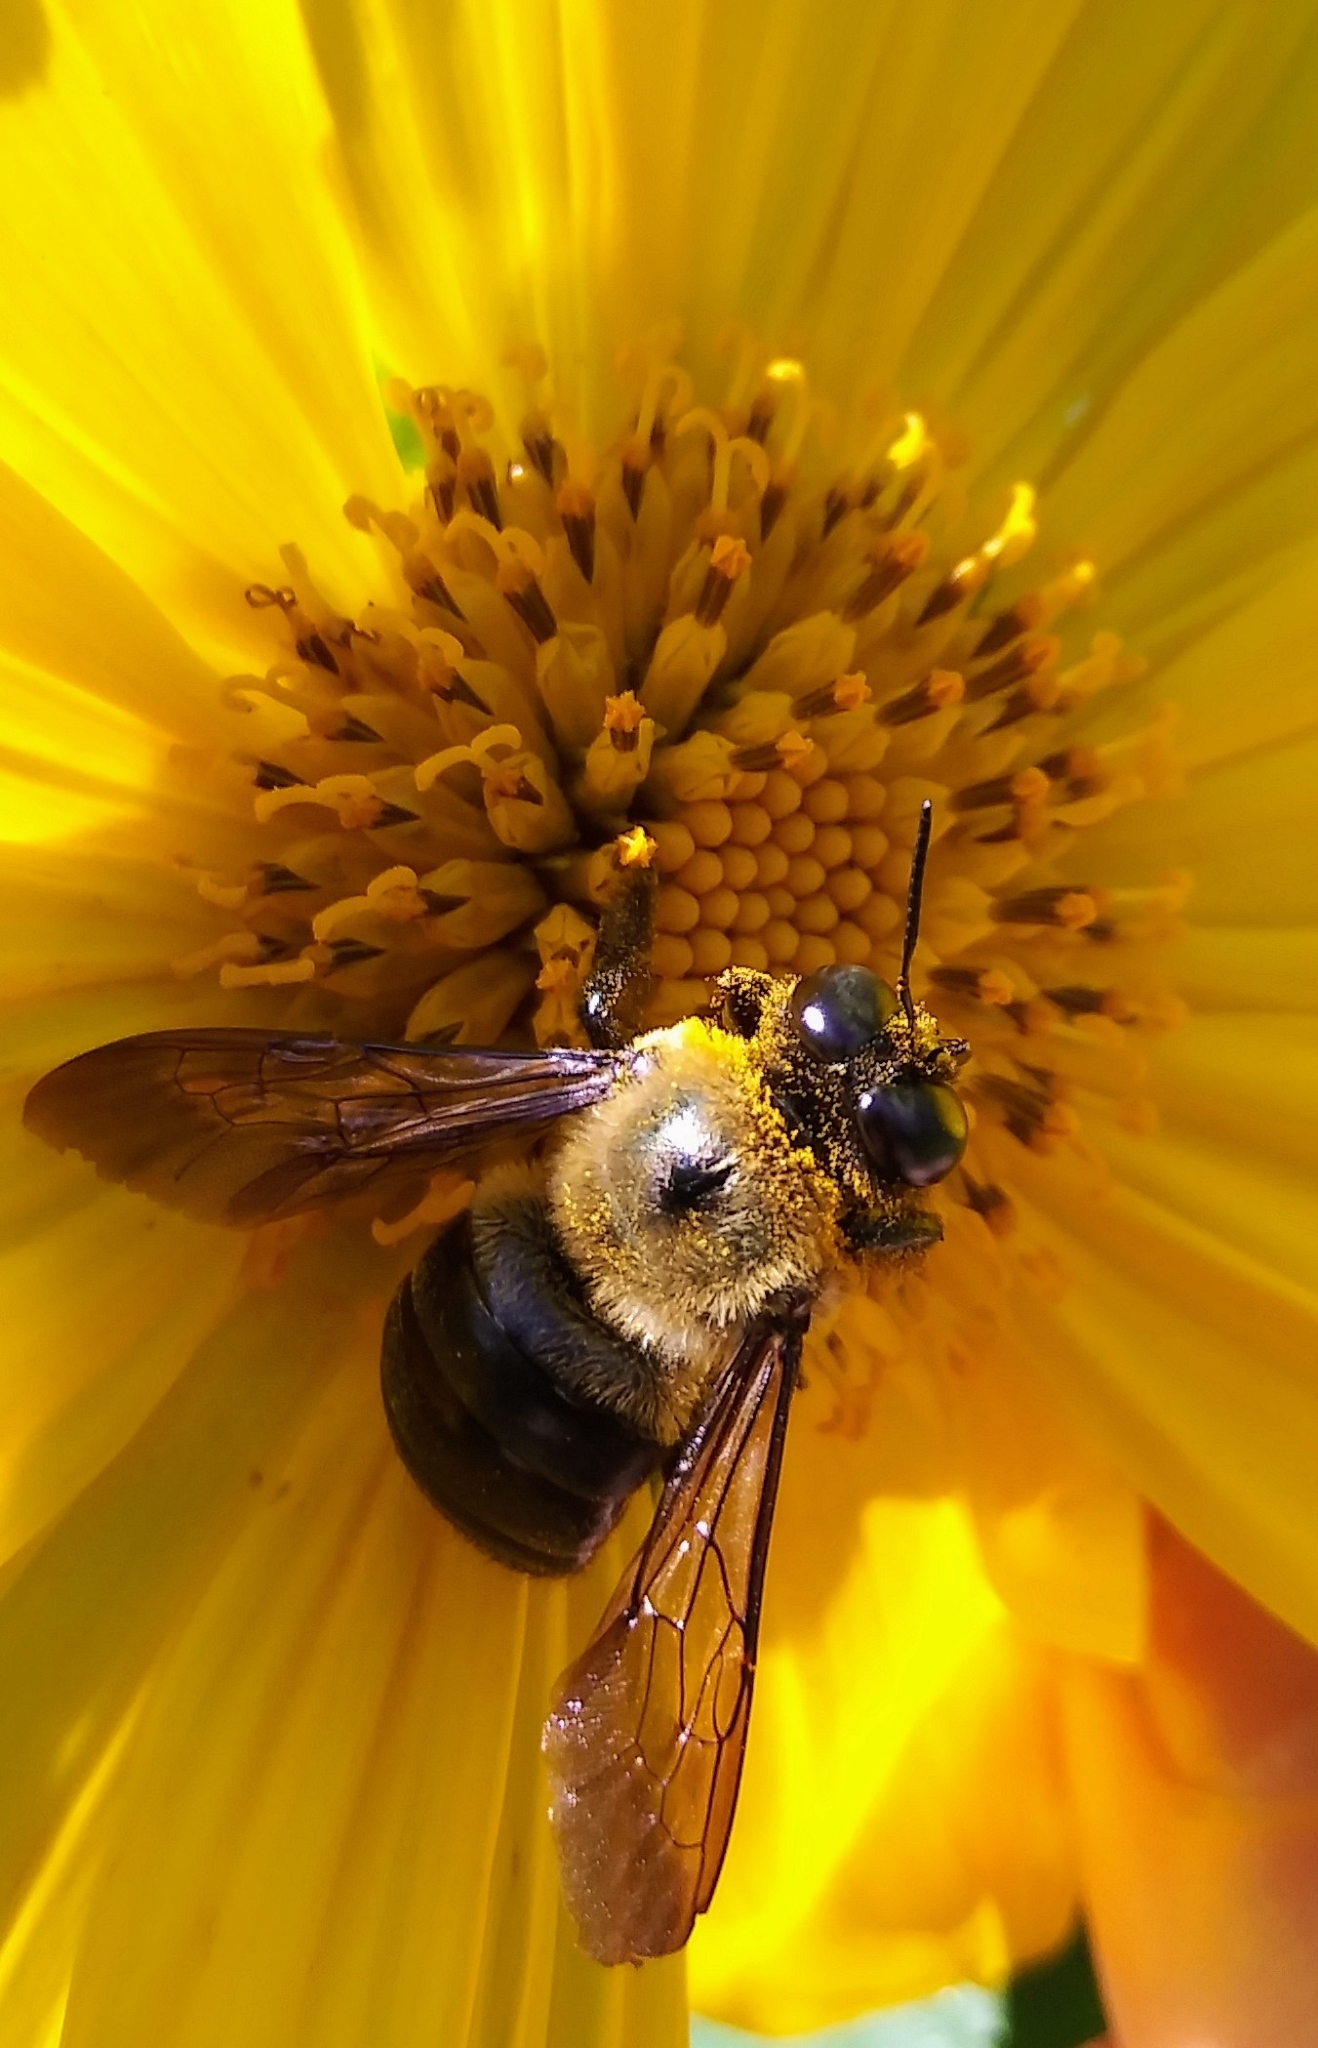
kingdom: Animalia
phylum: Arthropoda
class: Insecta
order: Hymenoptera
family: Apidae
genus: Xylocopa
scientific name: Xylocopa virginica
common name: Carpenter bee
